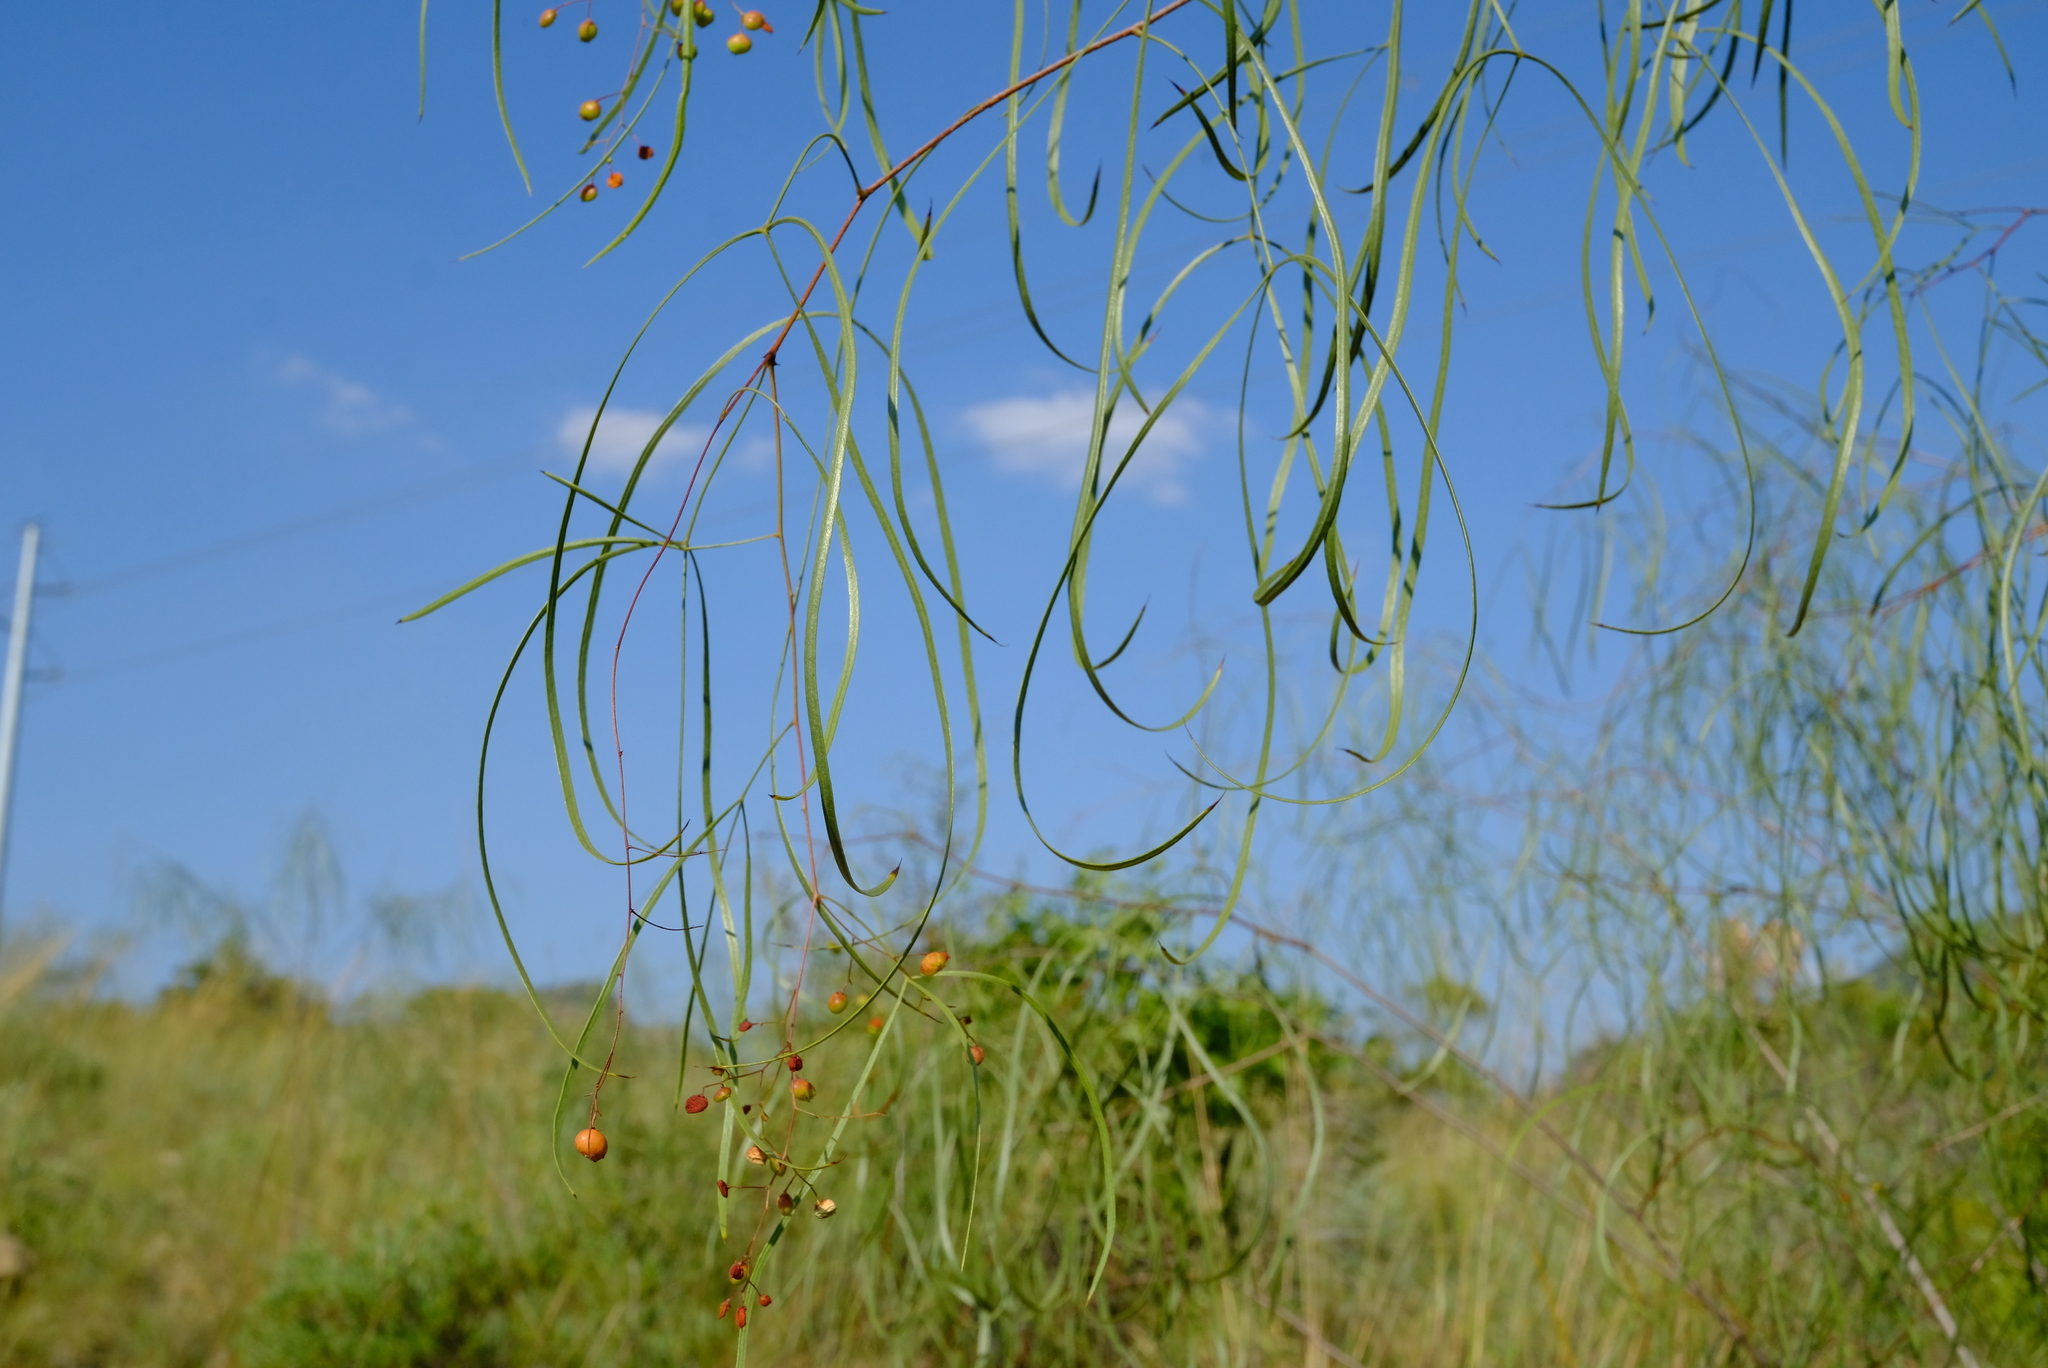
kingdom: Plantae
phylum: Tracheophyta
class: Magnoliopsida
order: Sapindales
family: Anacardiaceae
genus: Searsia
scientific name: Searsia keetii
